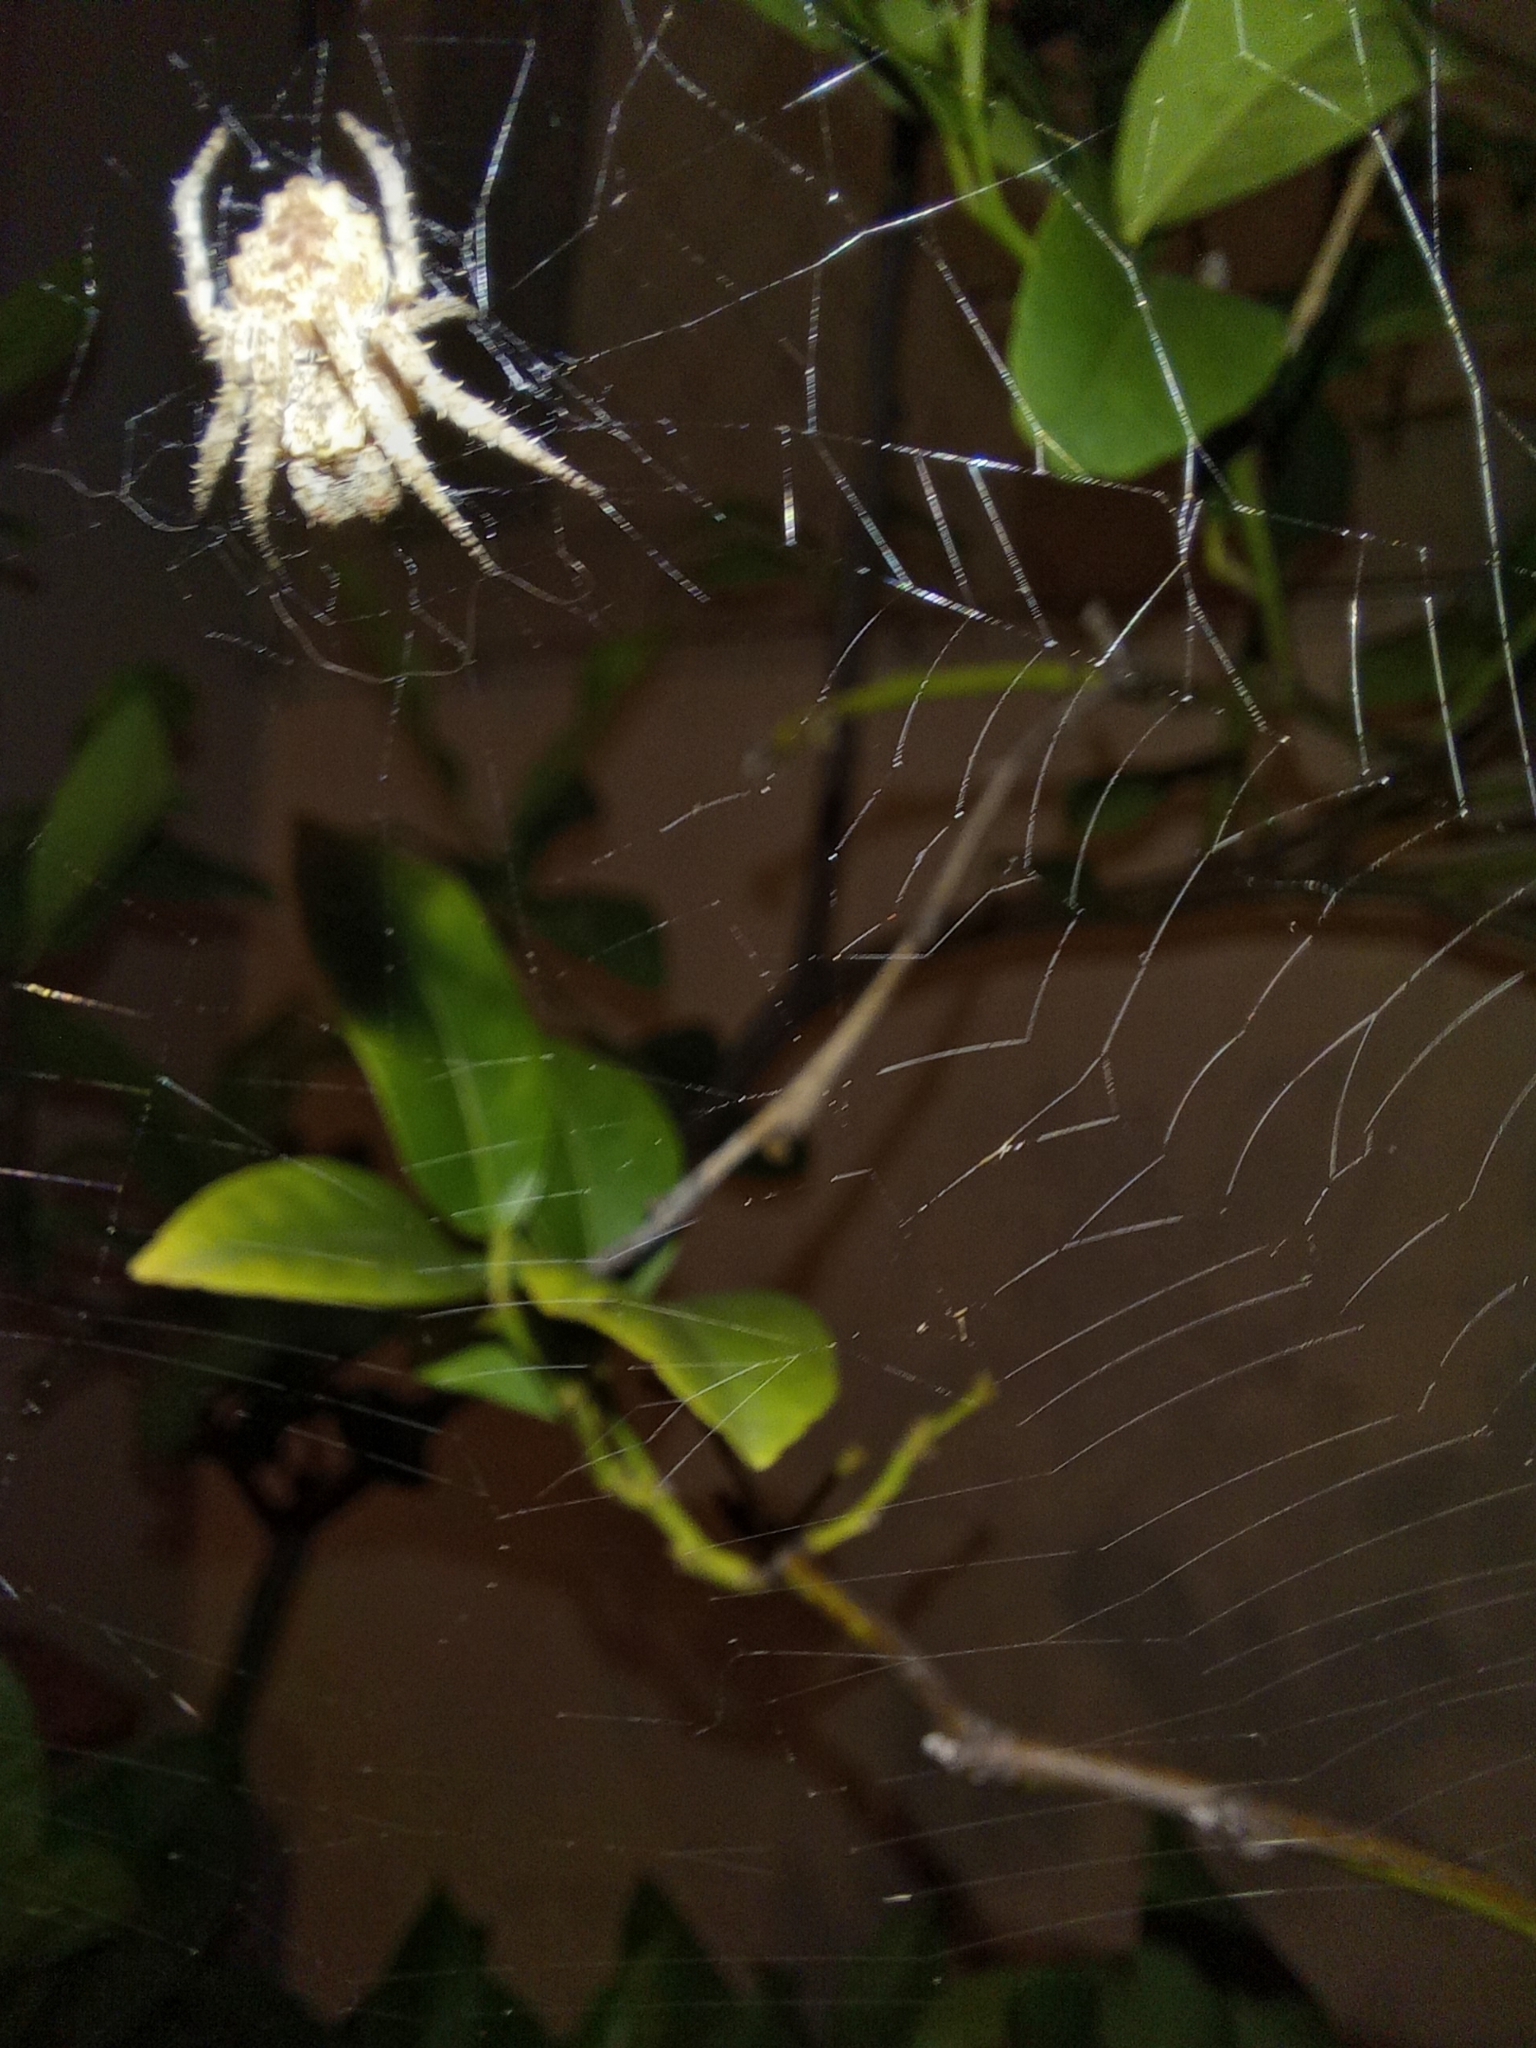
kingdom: Animalia
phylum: Arthropoda
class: Arachnida
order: Araneae
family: Araneidae
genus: Parawixia
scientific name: Parawixia audax
